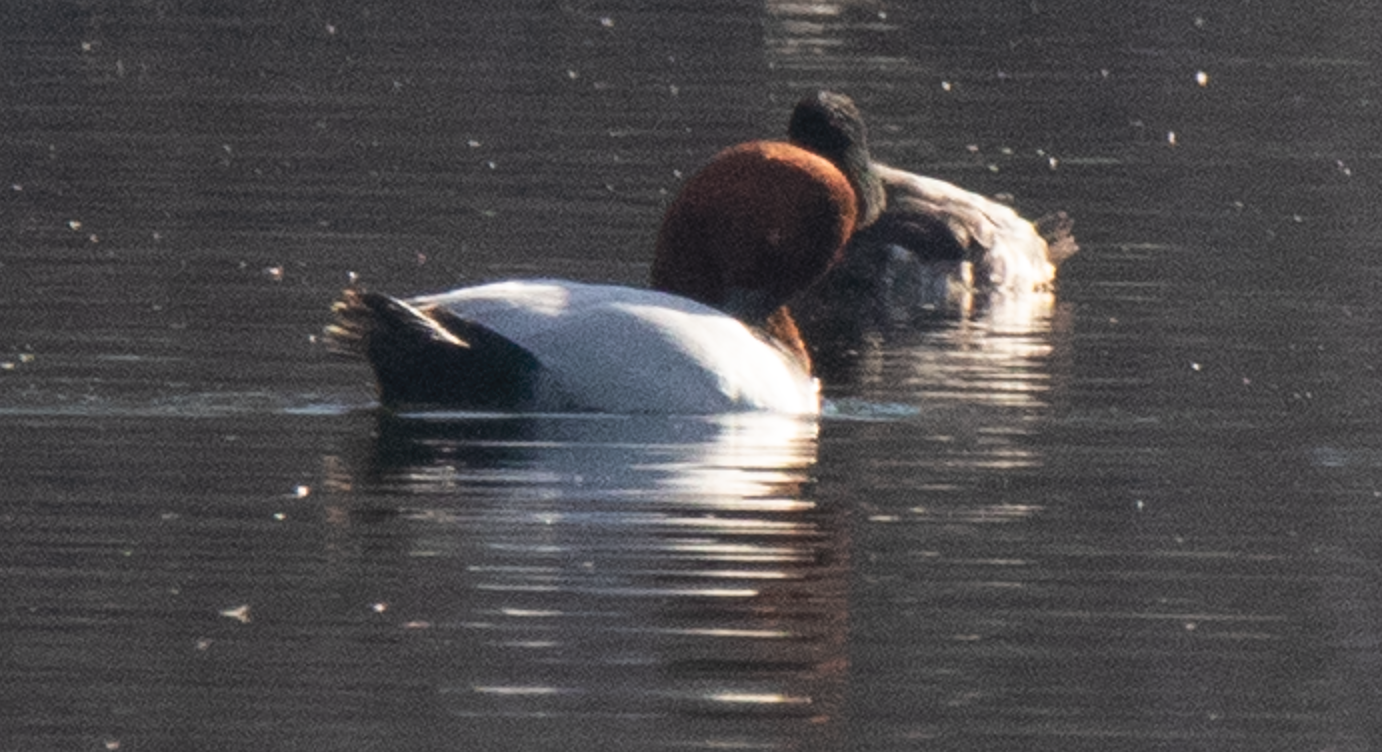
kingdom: Animalia
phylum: Chordata
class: Aves
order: Anseriformes
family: Anatidae
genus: Aythya
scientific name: Aythya ferina
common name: Common pochard
